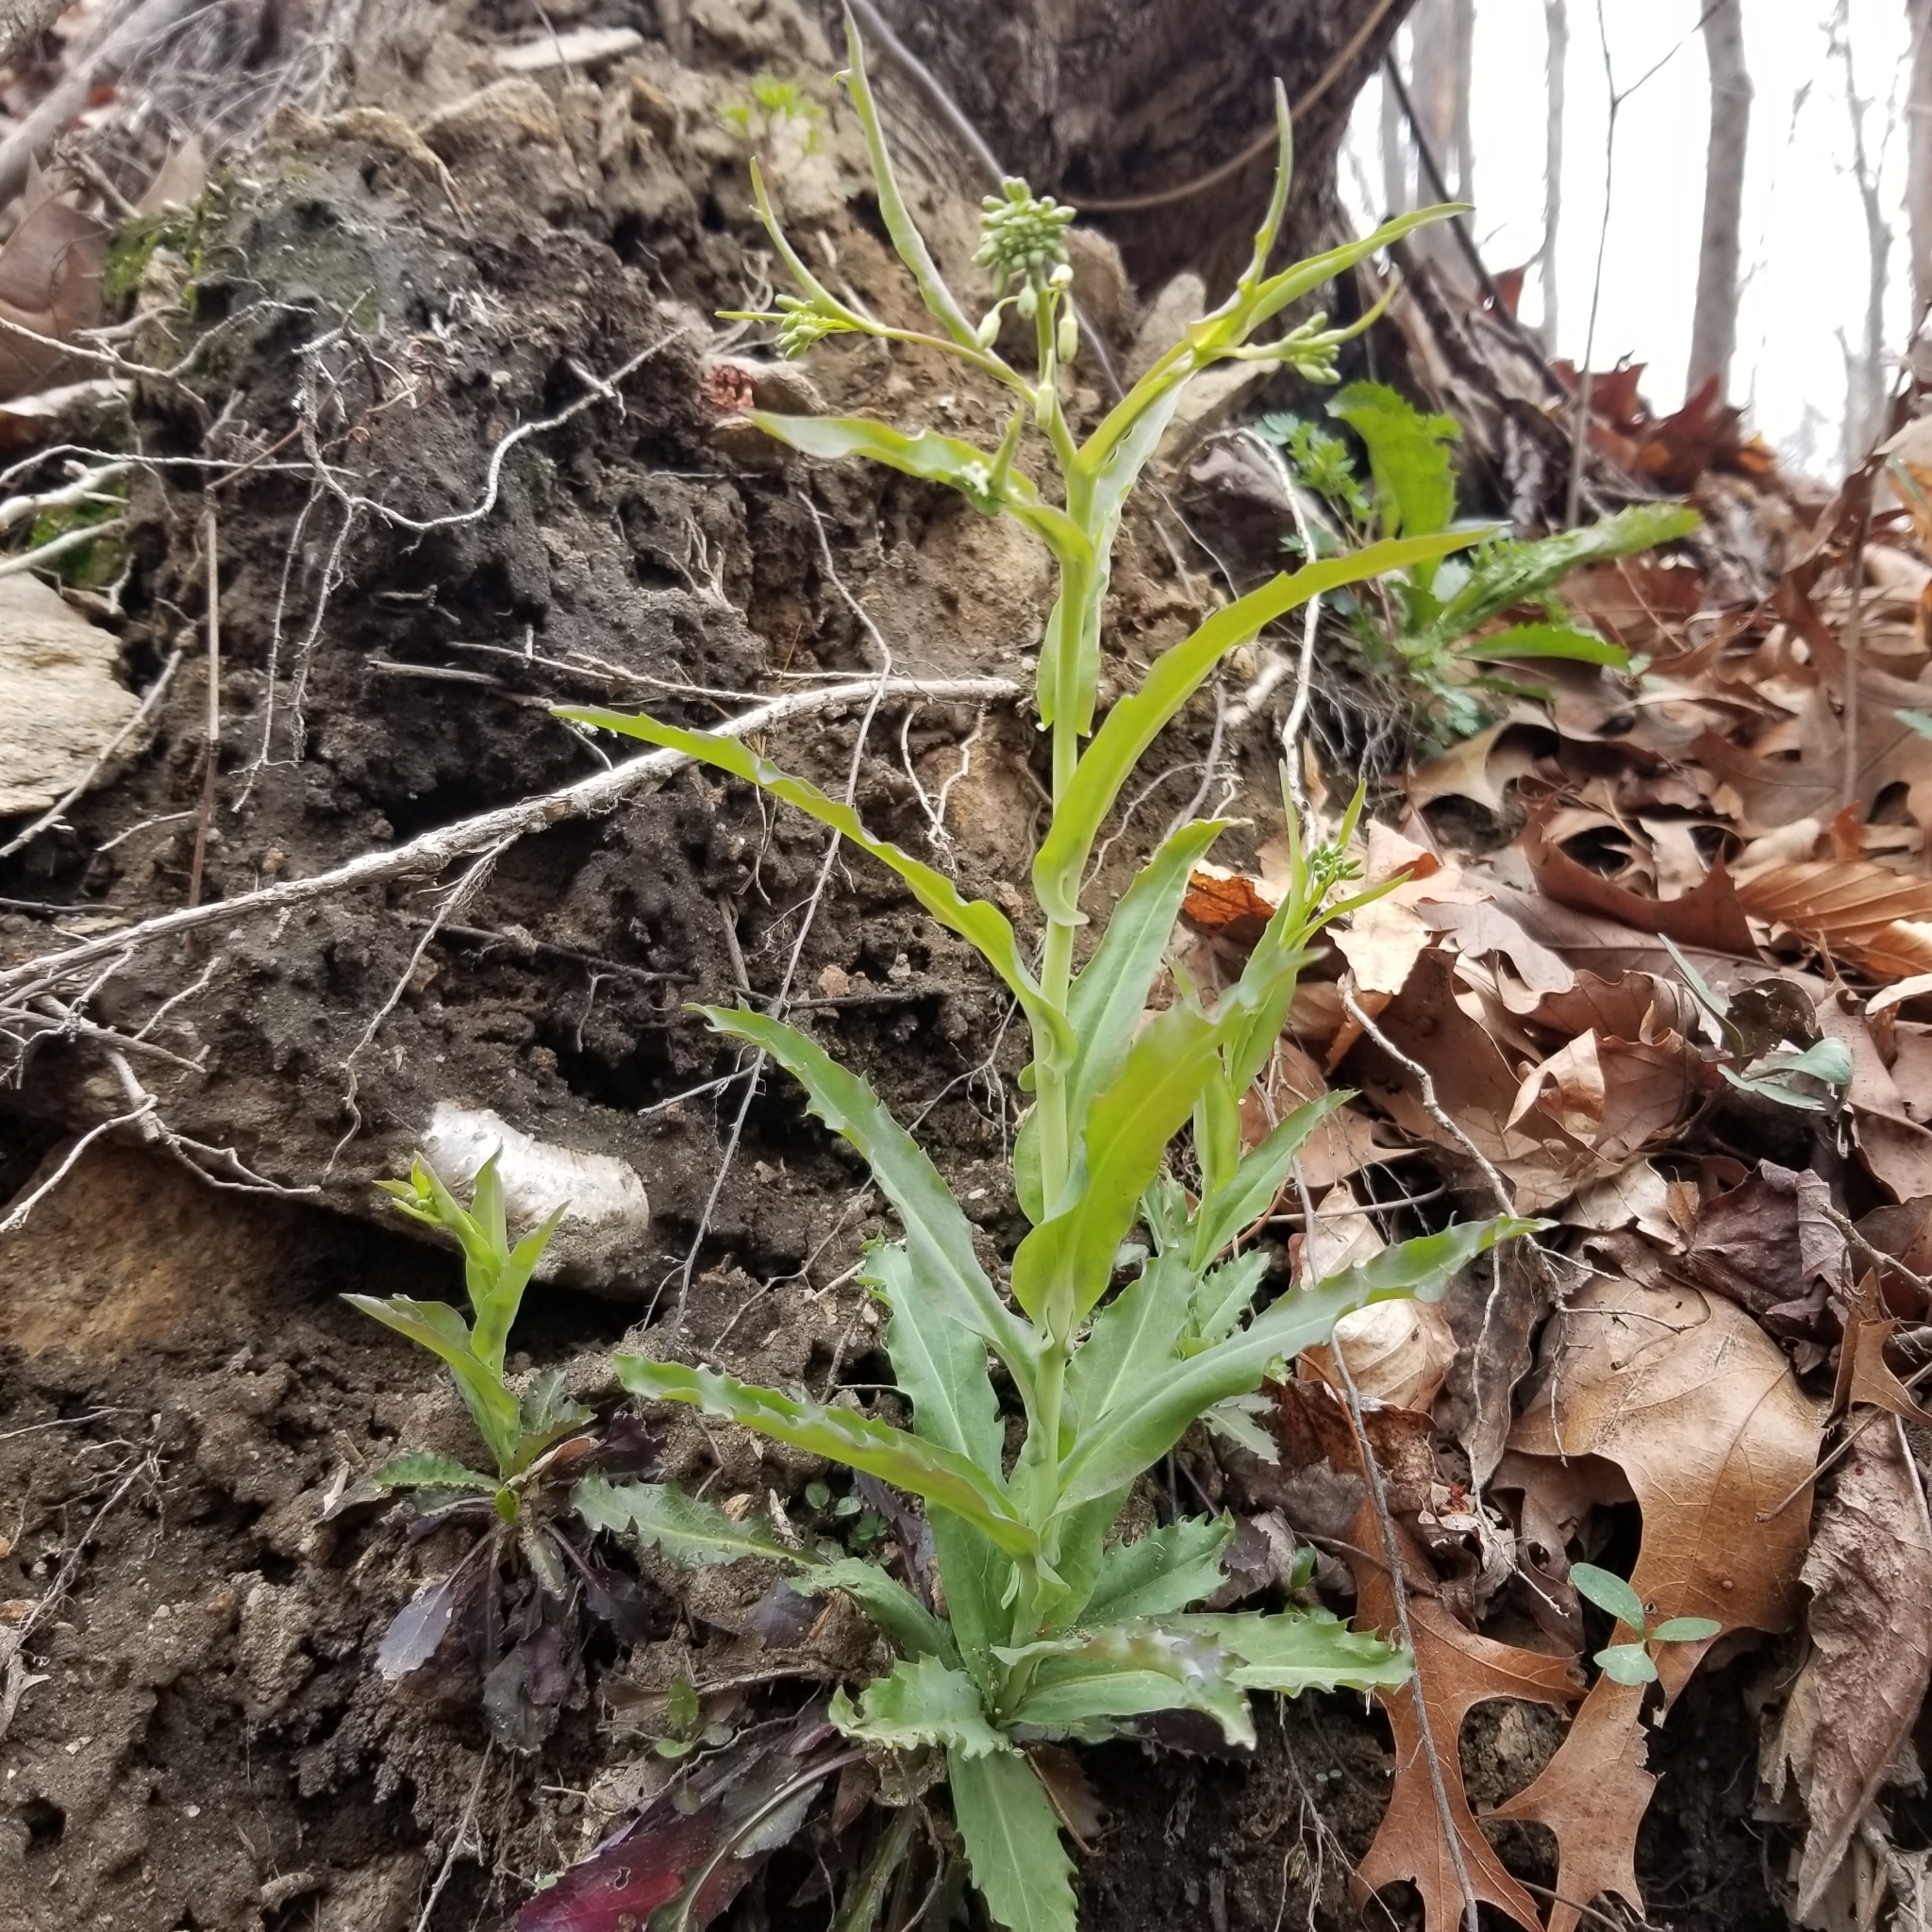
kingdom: Plantae
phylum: Tracheophyta
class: Magnoliopsida
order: Brassicales
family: Brassicaceae
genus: Borodinia
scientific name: Borodinia laevigata
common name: Smooth rockcress
